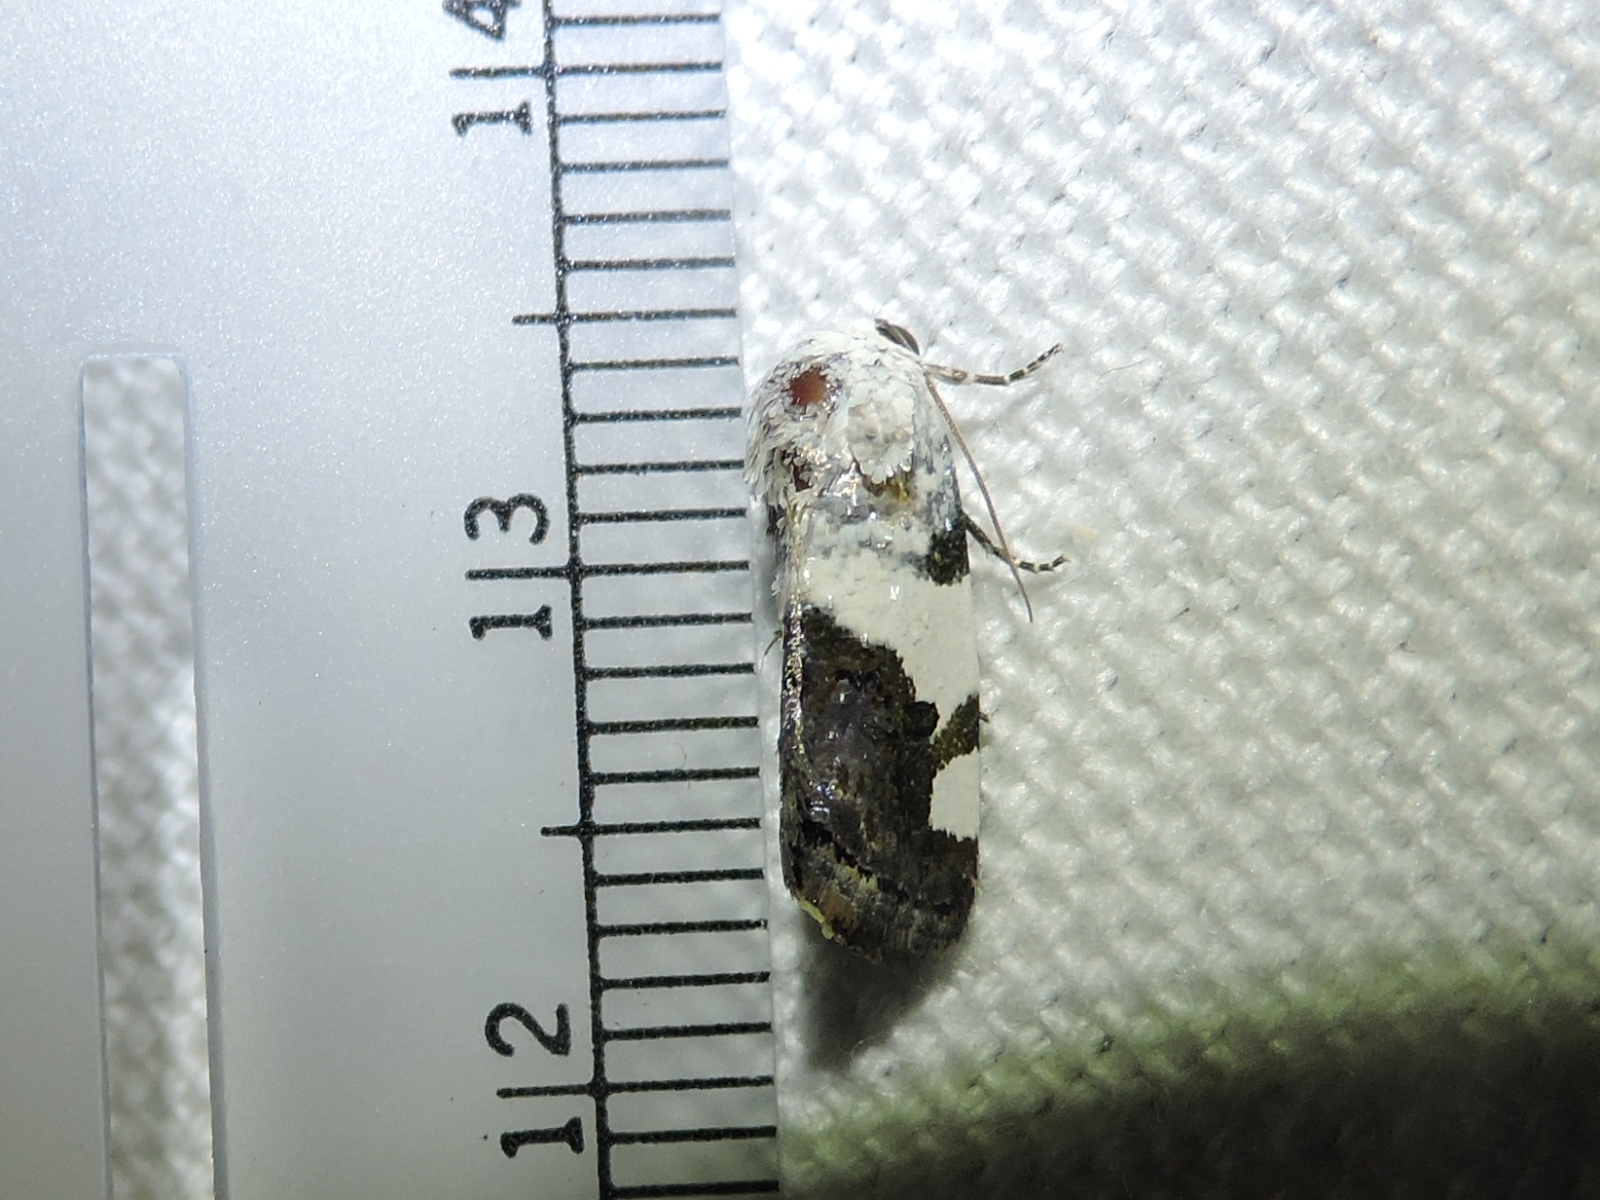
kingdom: Animalia
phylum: Arthropoda
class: Insecta
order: Lepidoptera
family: Noctuidae
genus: Acontia
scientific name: Acontia Tarache tetragona
